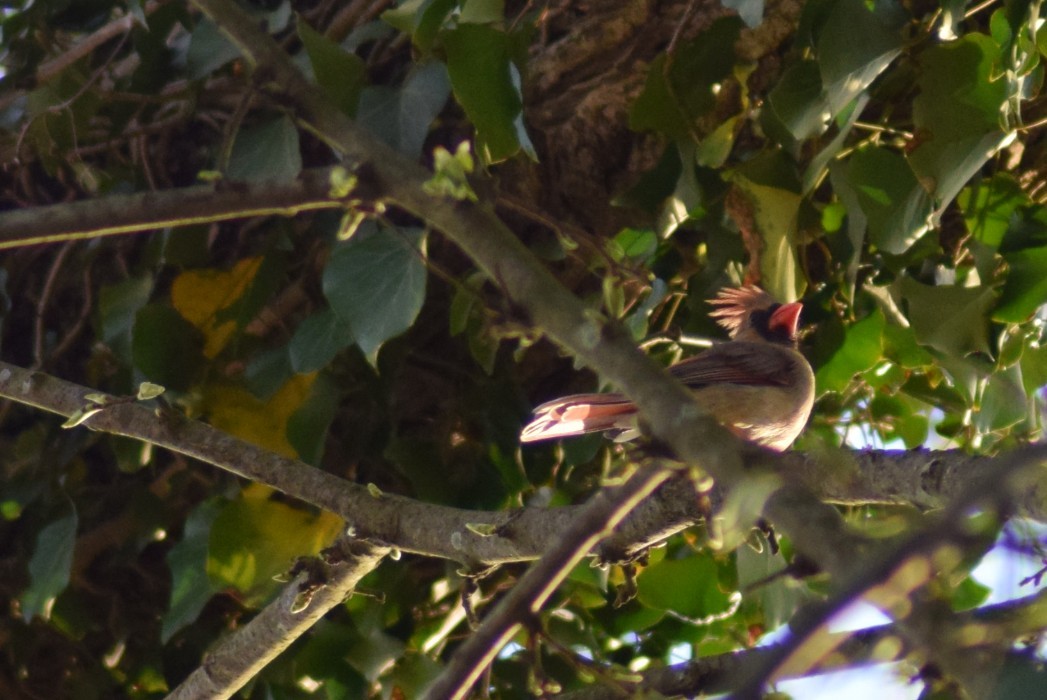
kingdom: Animalia
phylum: Chordata
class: Aves
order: Passeriformes
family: Cardinalidae
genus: Cardinalis
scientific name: Cardinalis cardinalis
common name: Northern cardinal
